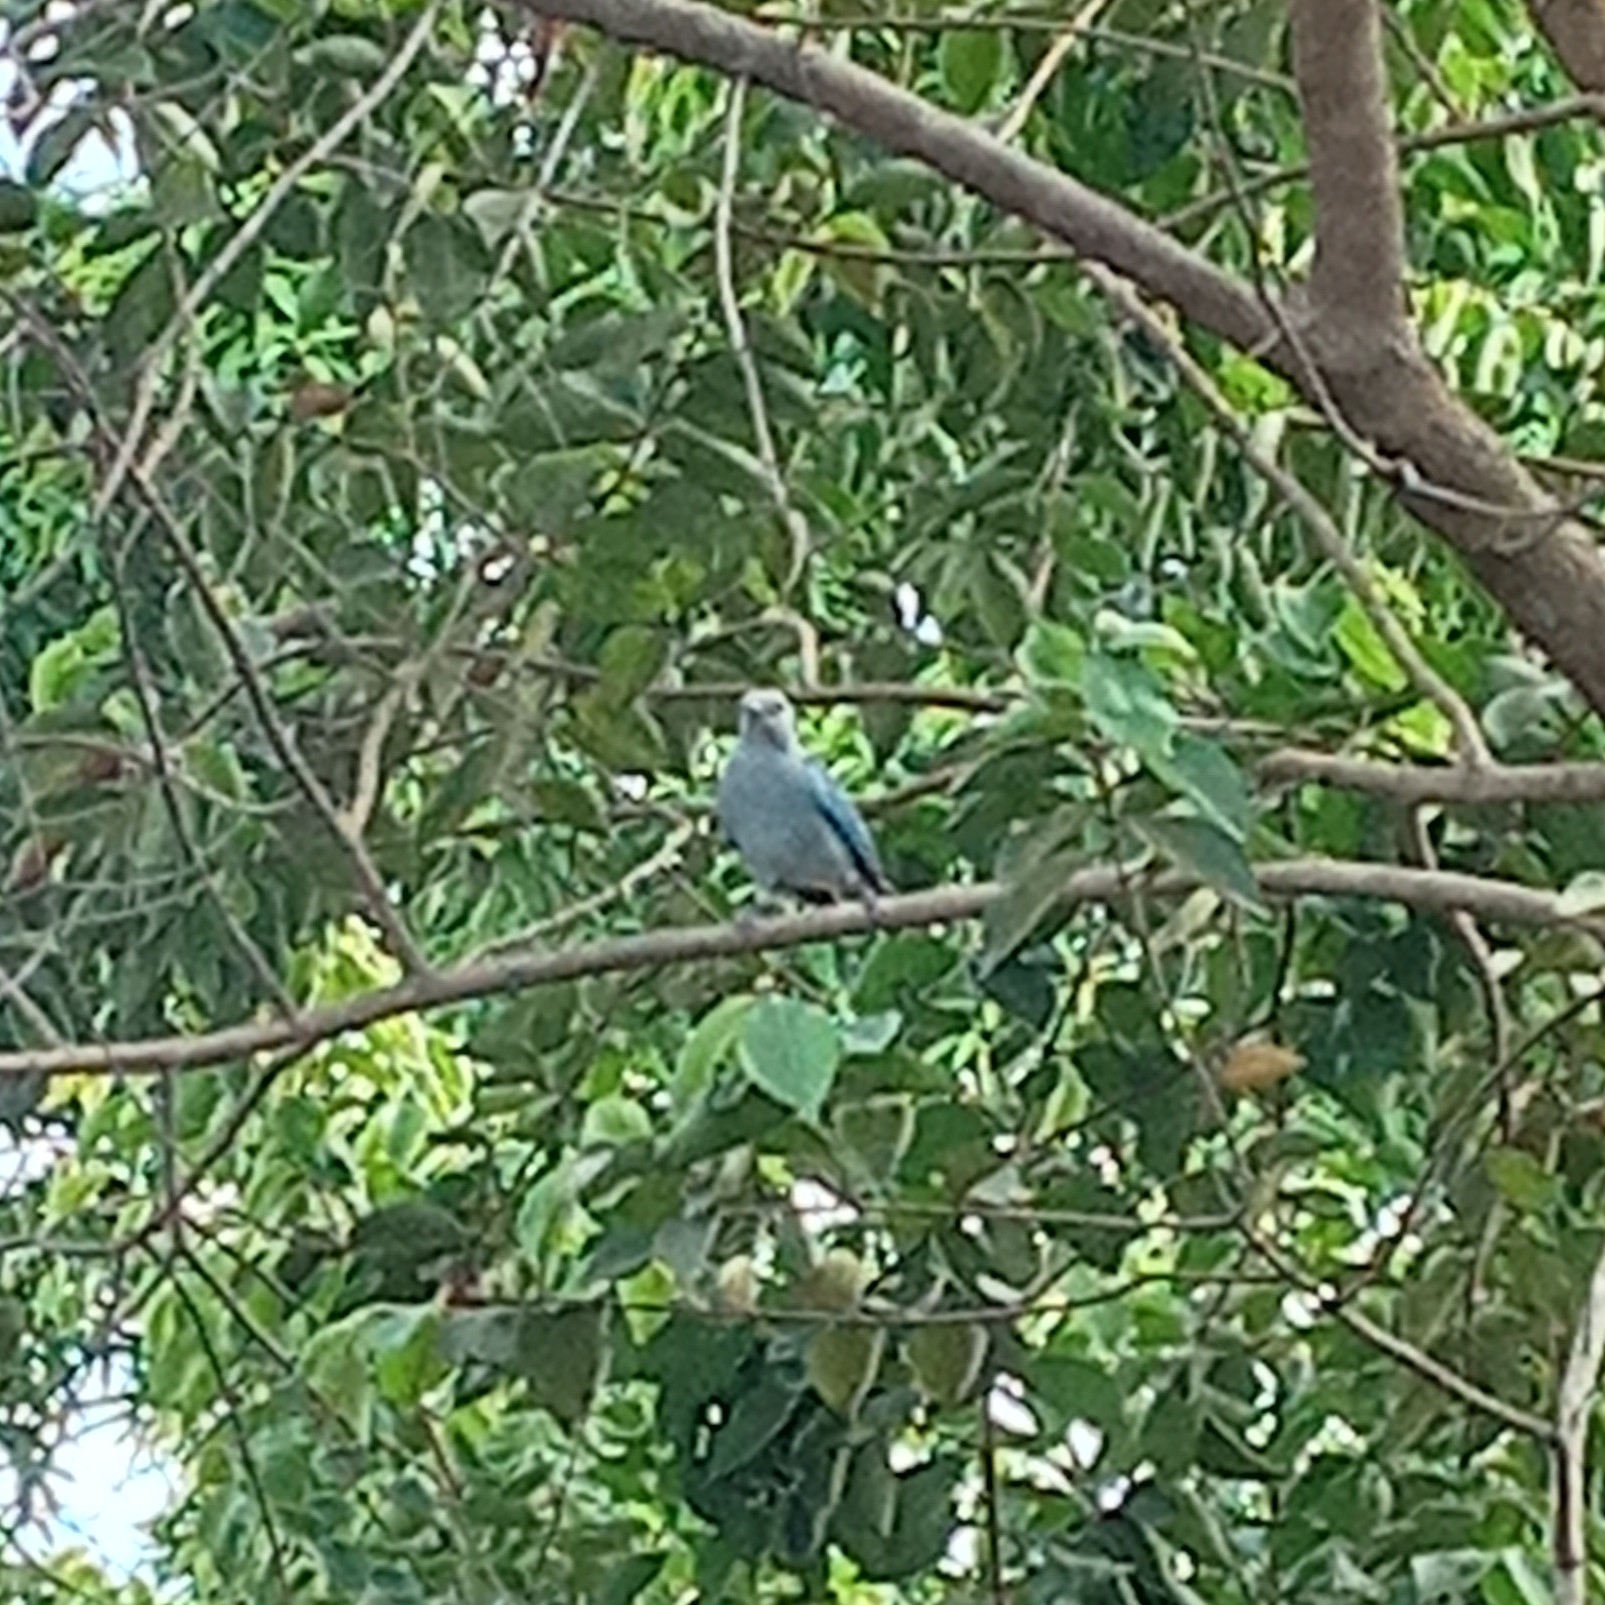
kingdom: Animalia
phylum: Chordata
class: Aves
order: Passeriformes
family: Thraupidae
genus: Thraupis
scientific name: Thraupis episcopus
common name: Blue-grey tanager
